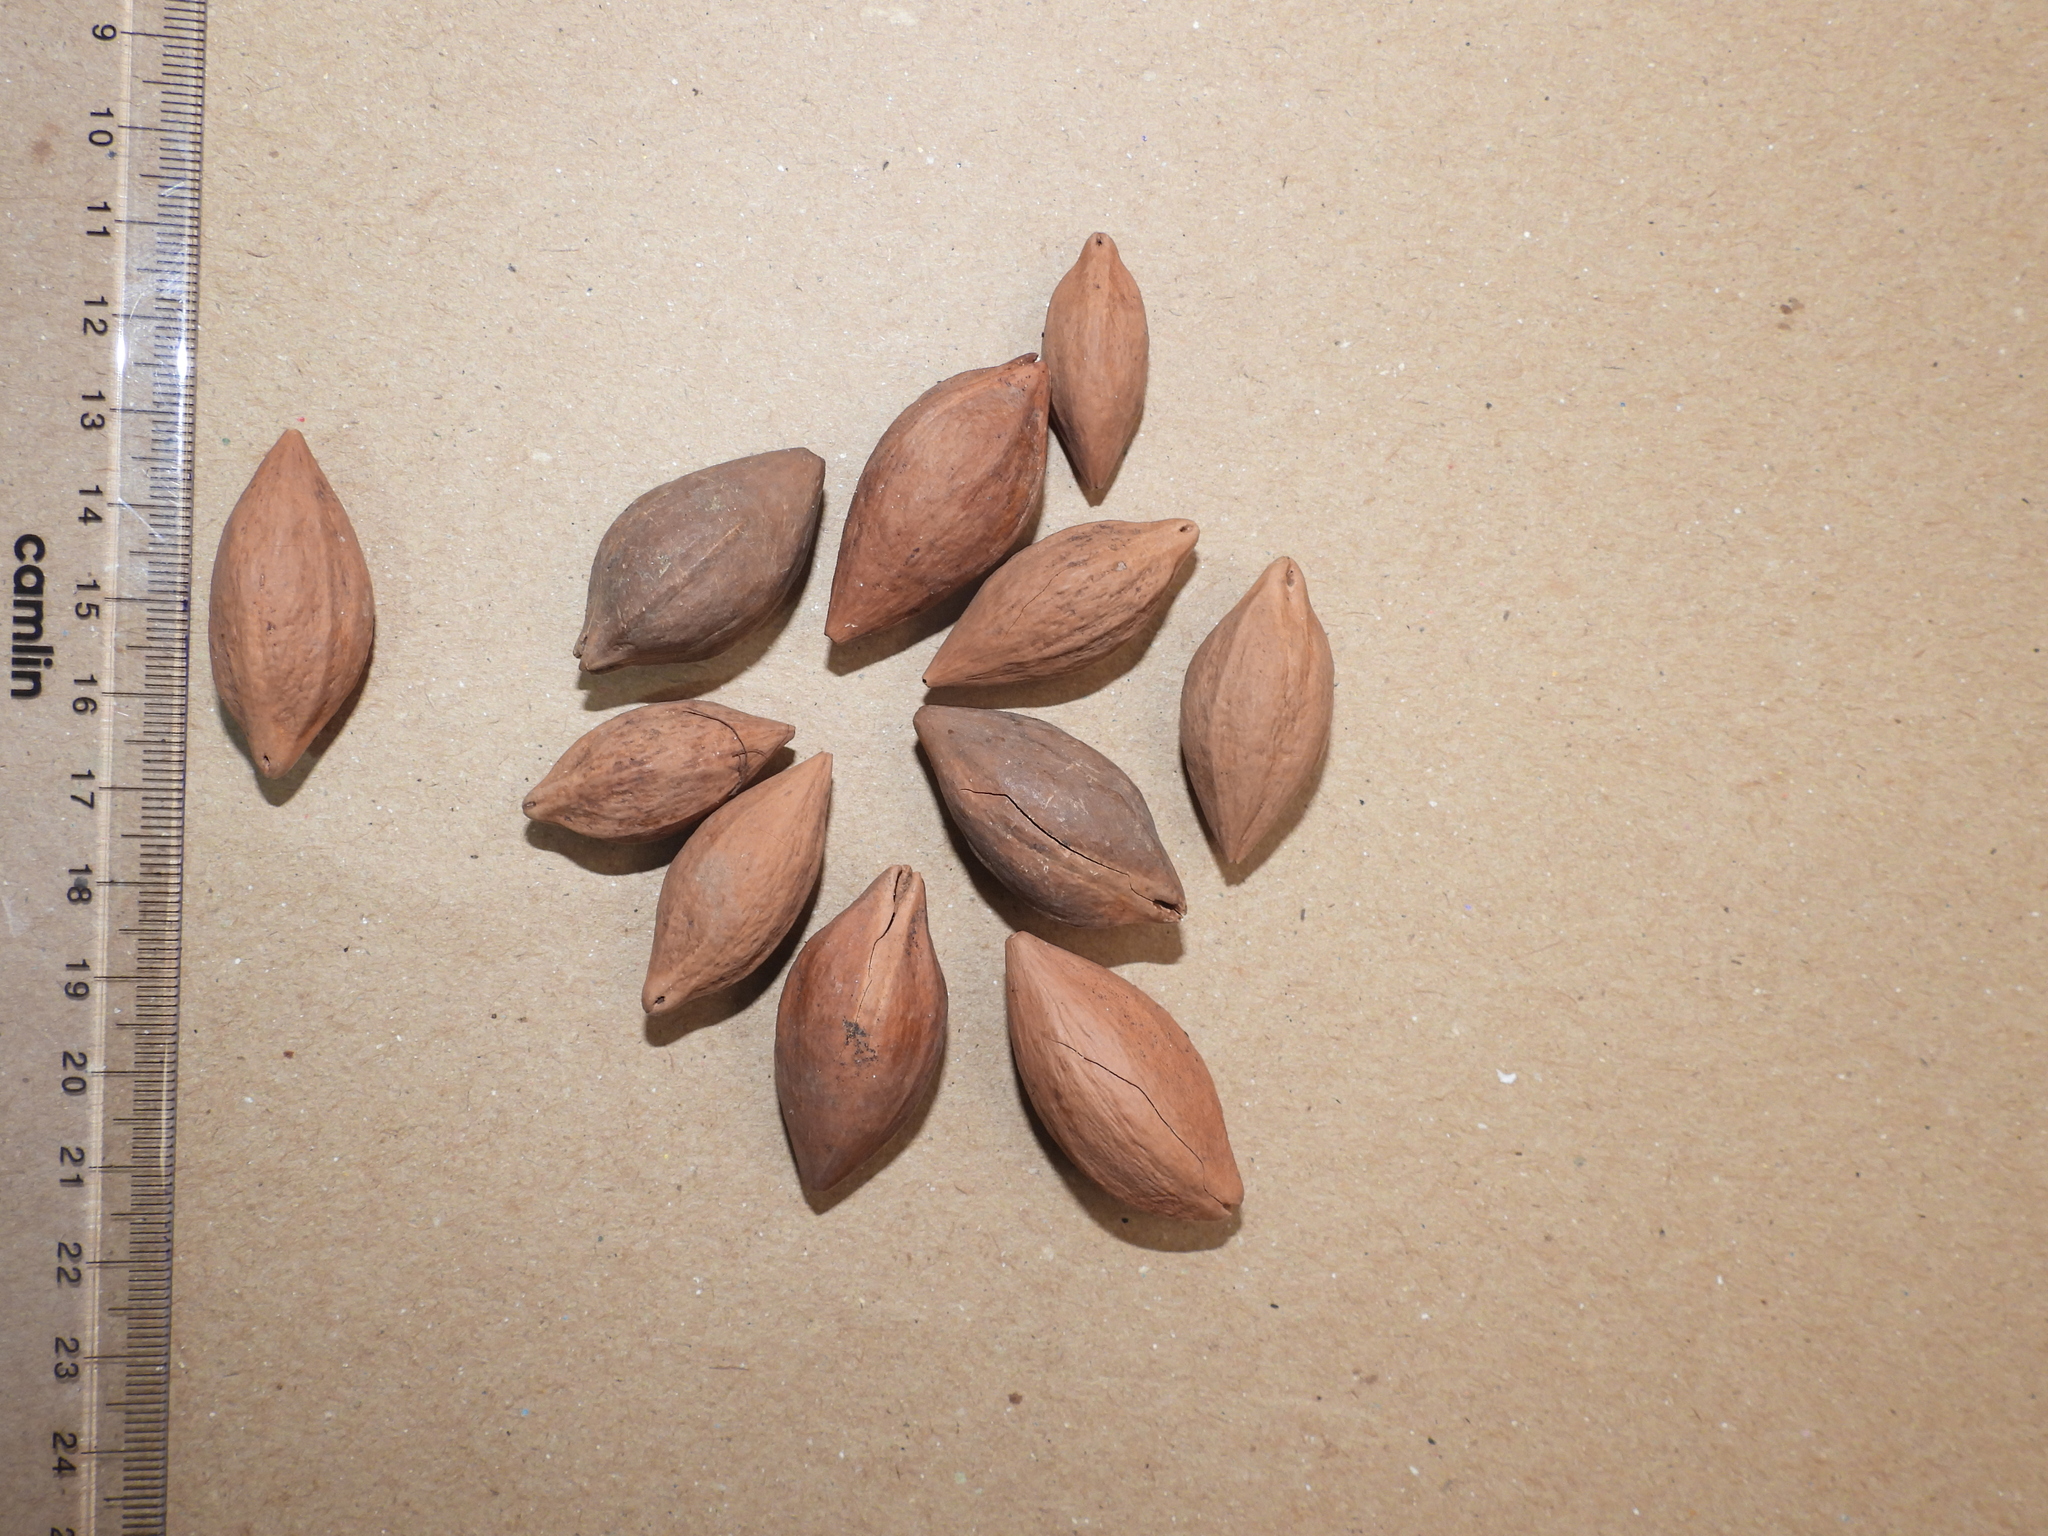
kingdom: Plantae
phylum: Tracheophyta
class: Magnoliopsida
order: Sapindales
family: Burseraceae
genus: Canarium
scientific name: Canarium strictum
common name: Indian white-mahogany
